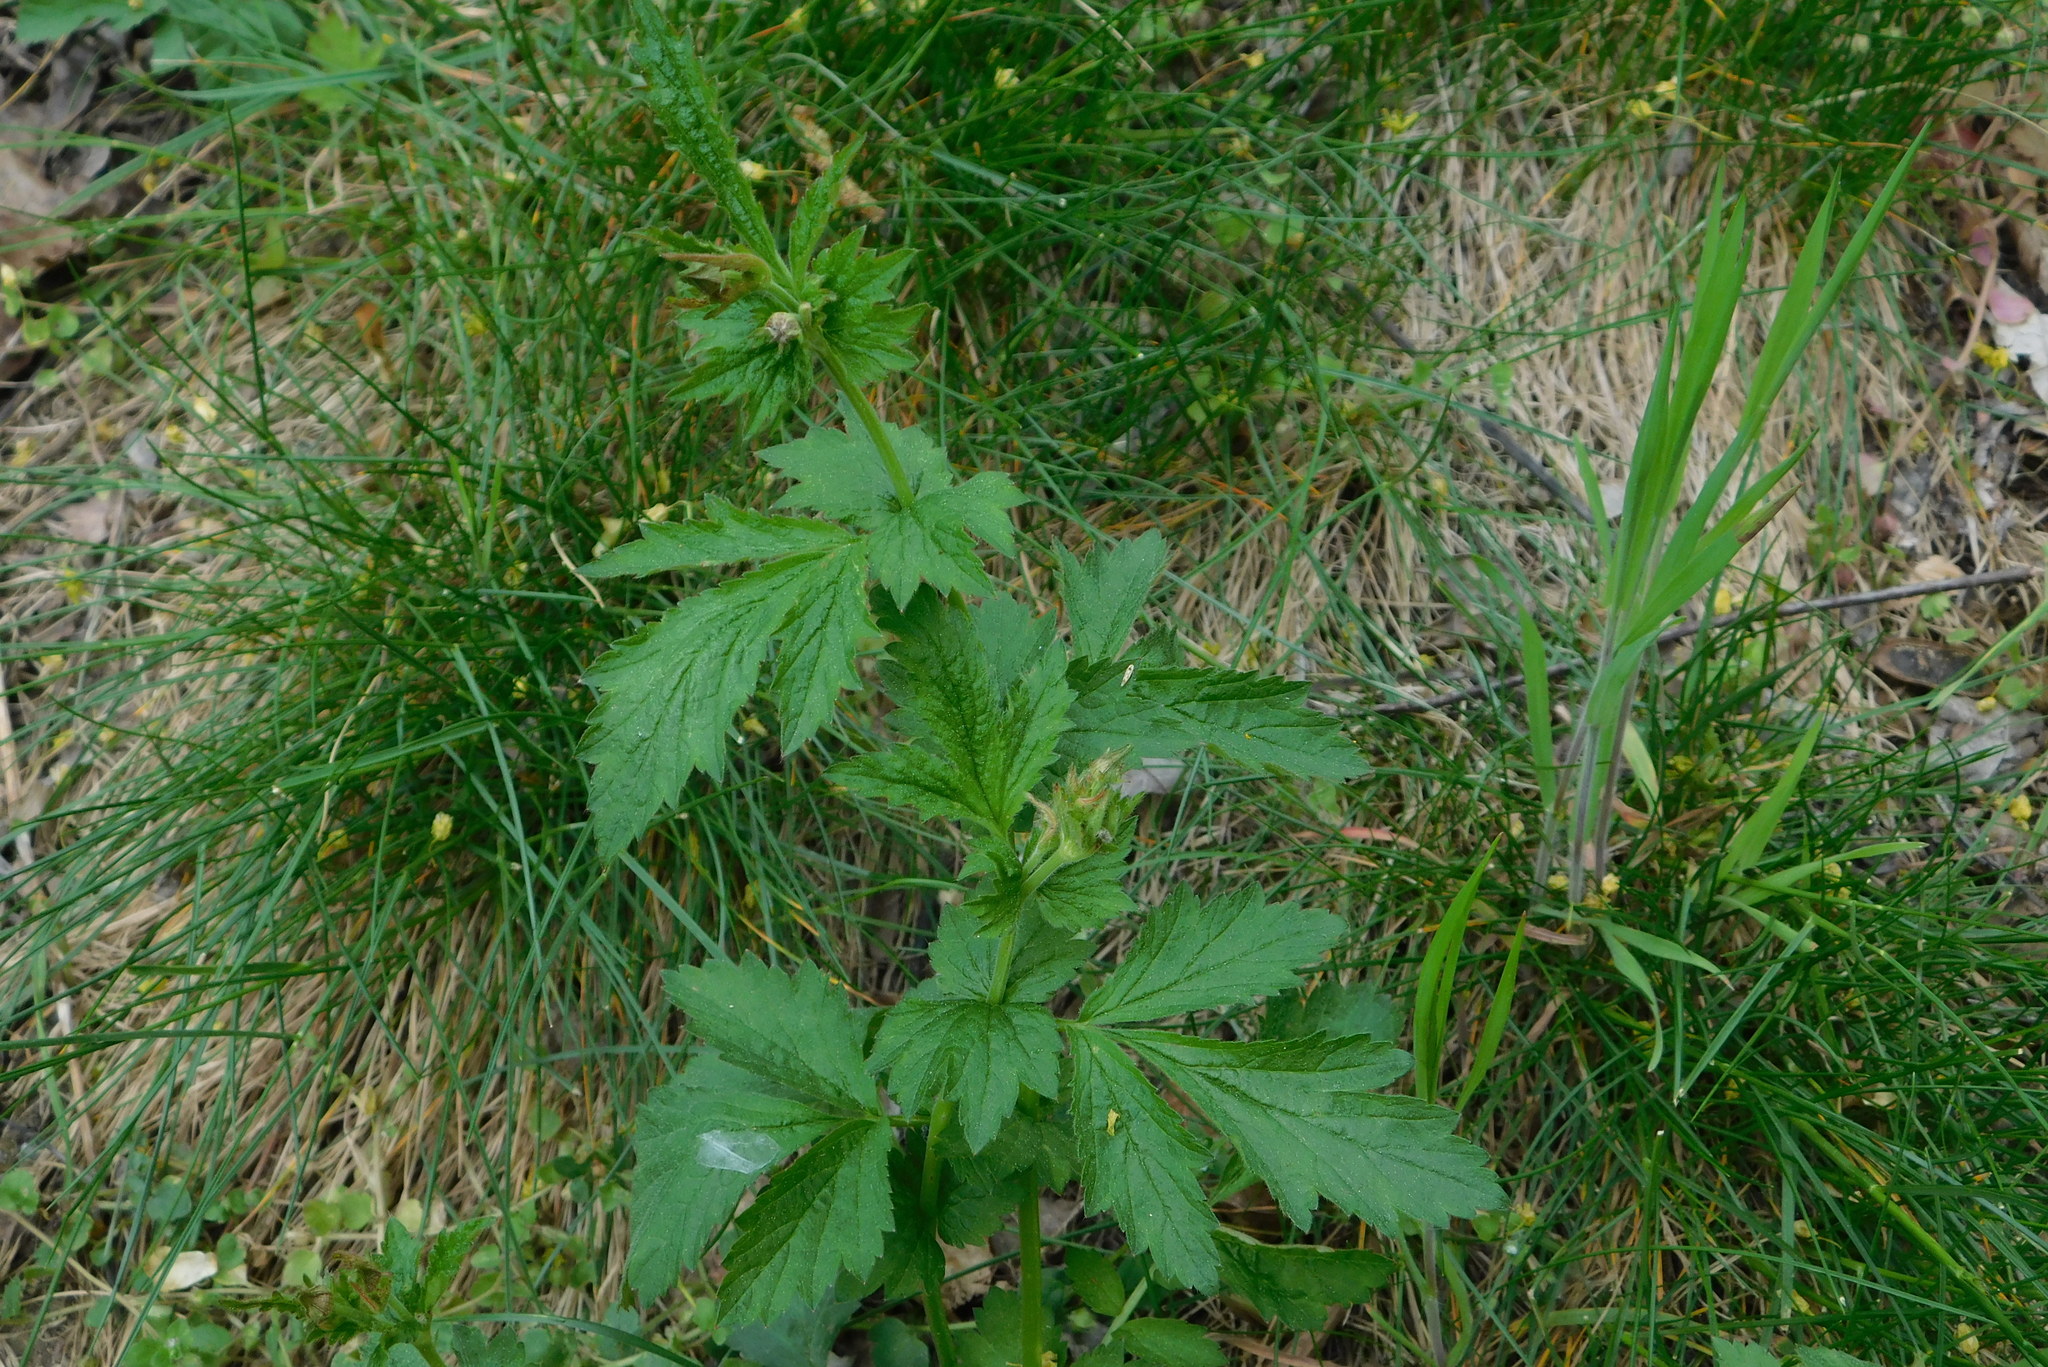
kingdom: Plantae
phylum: Tracheophyta
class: Magnoliopsida
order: Rosales
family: Rosaceae
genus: Geum
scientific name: Geum urbanum
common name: Wood avens
